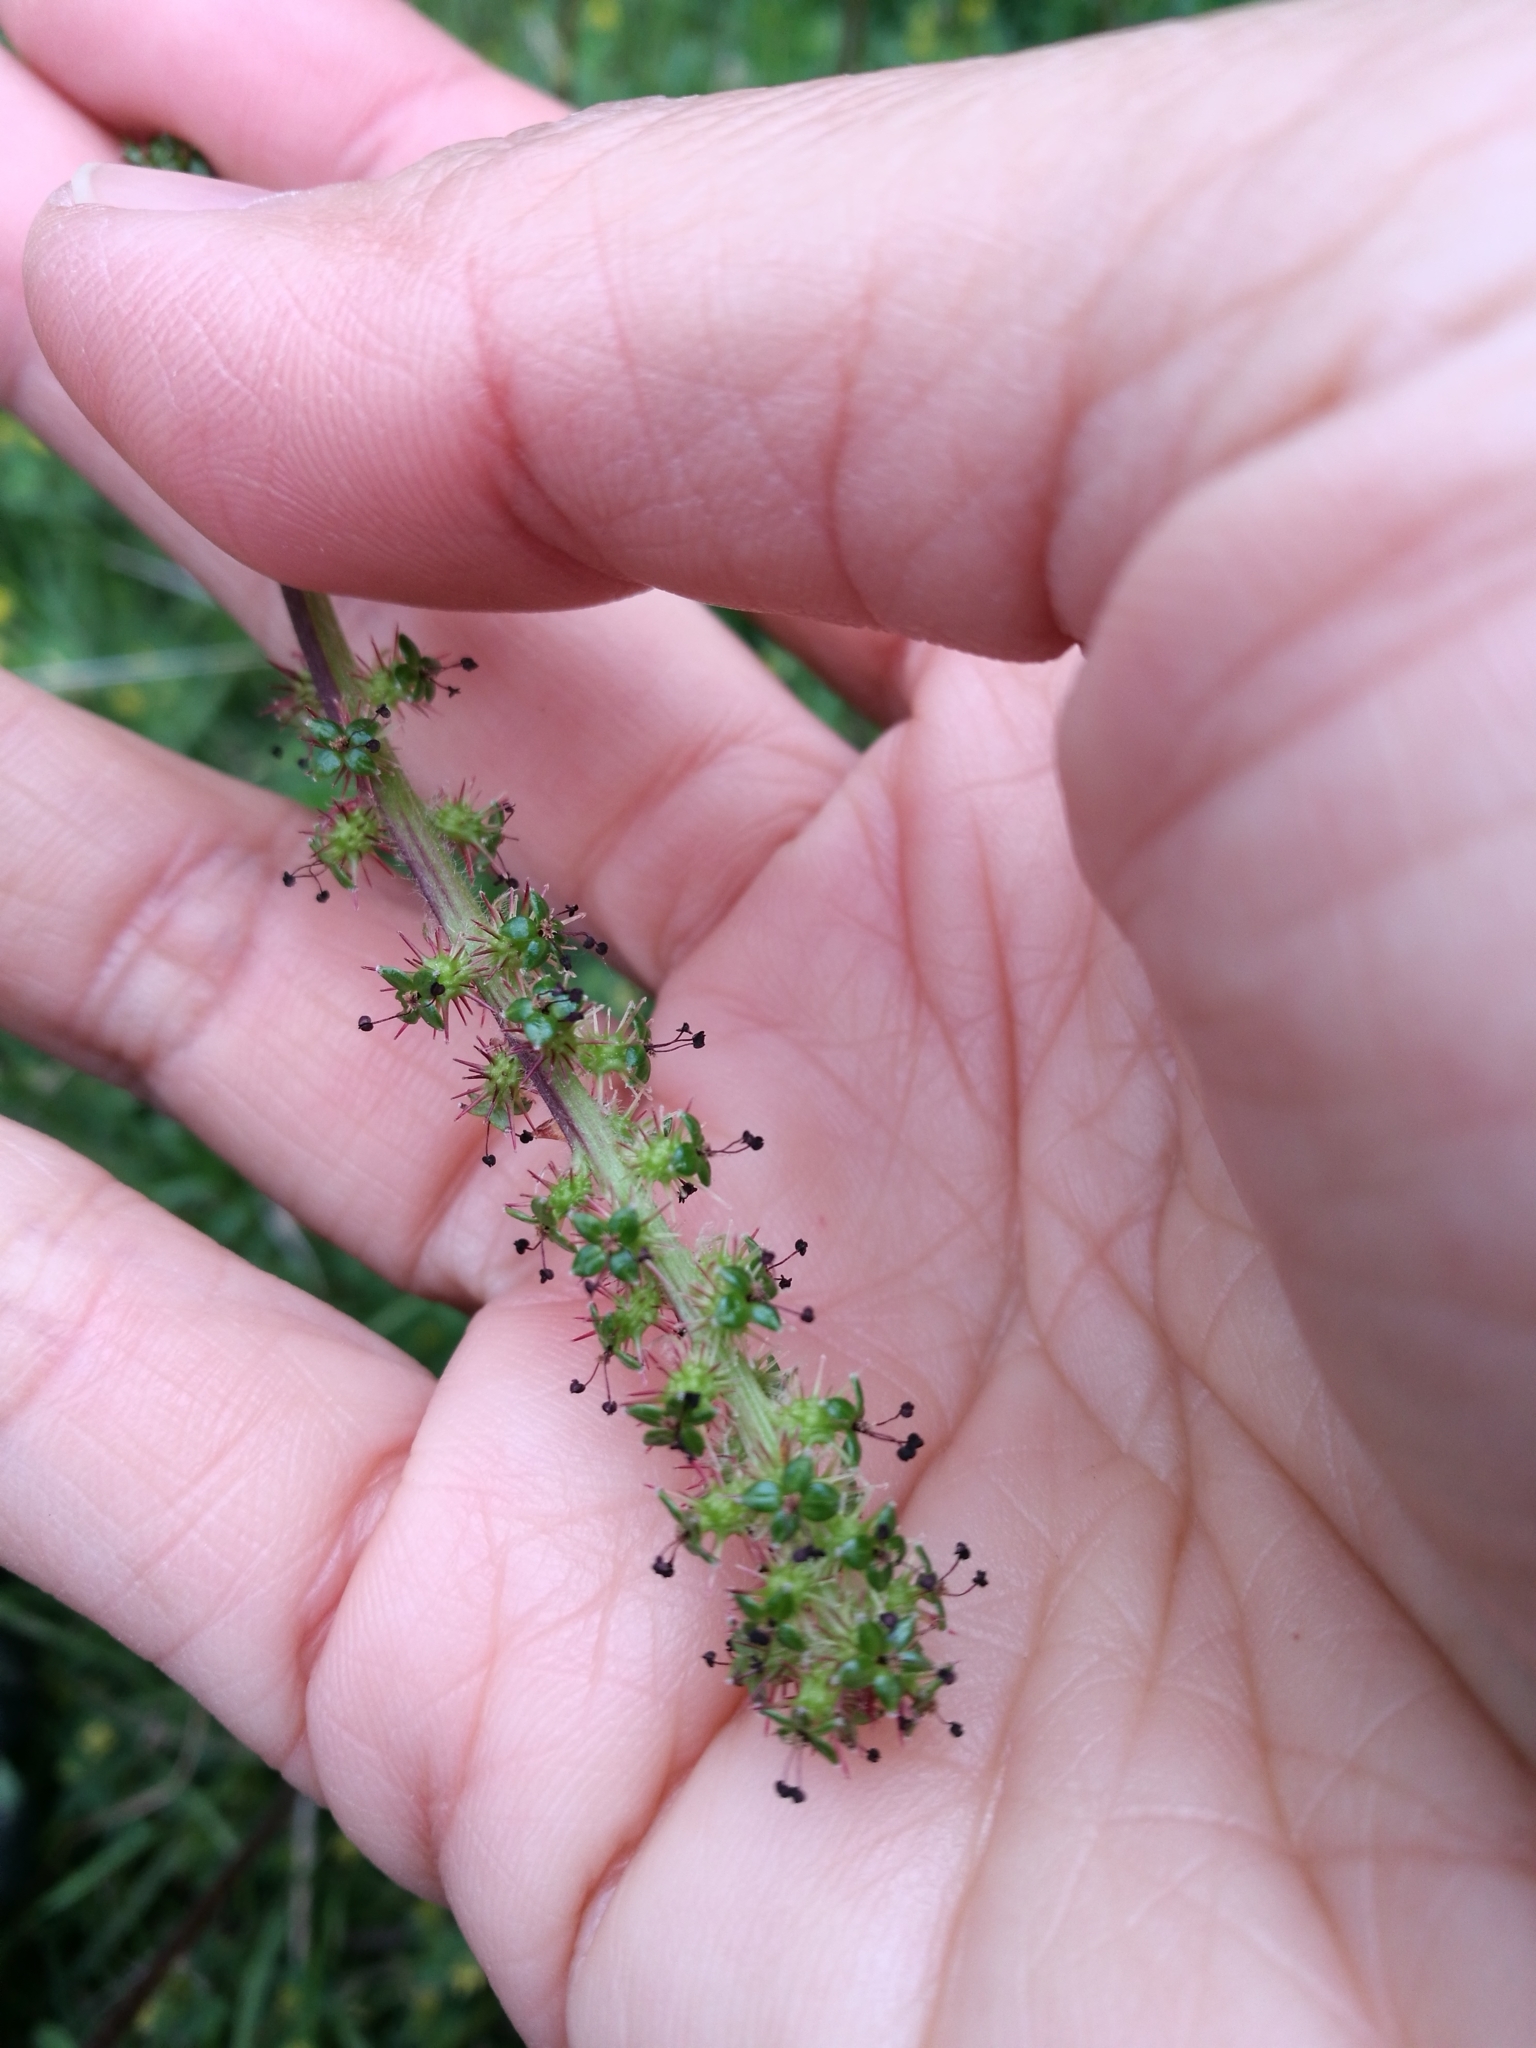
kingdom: Plantae
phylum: Tracheophyta
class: Magnoliopsida
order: Rosales
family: Rosaceae
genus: Acaena
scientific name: Acaena agnipila
